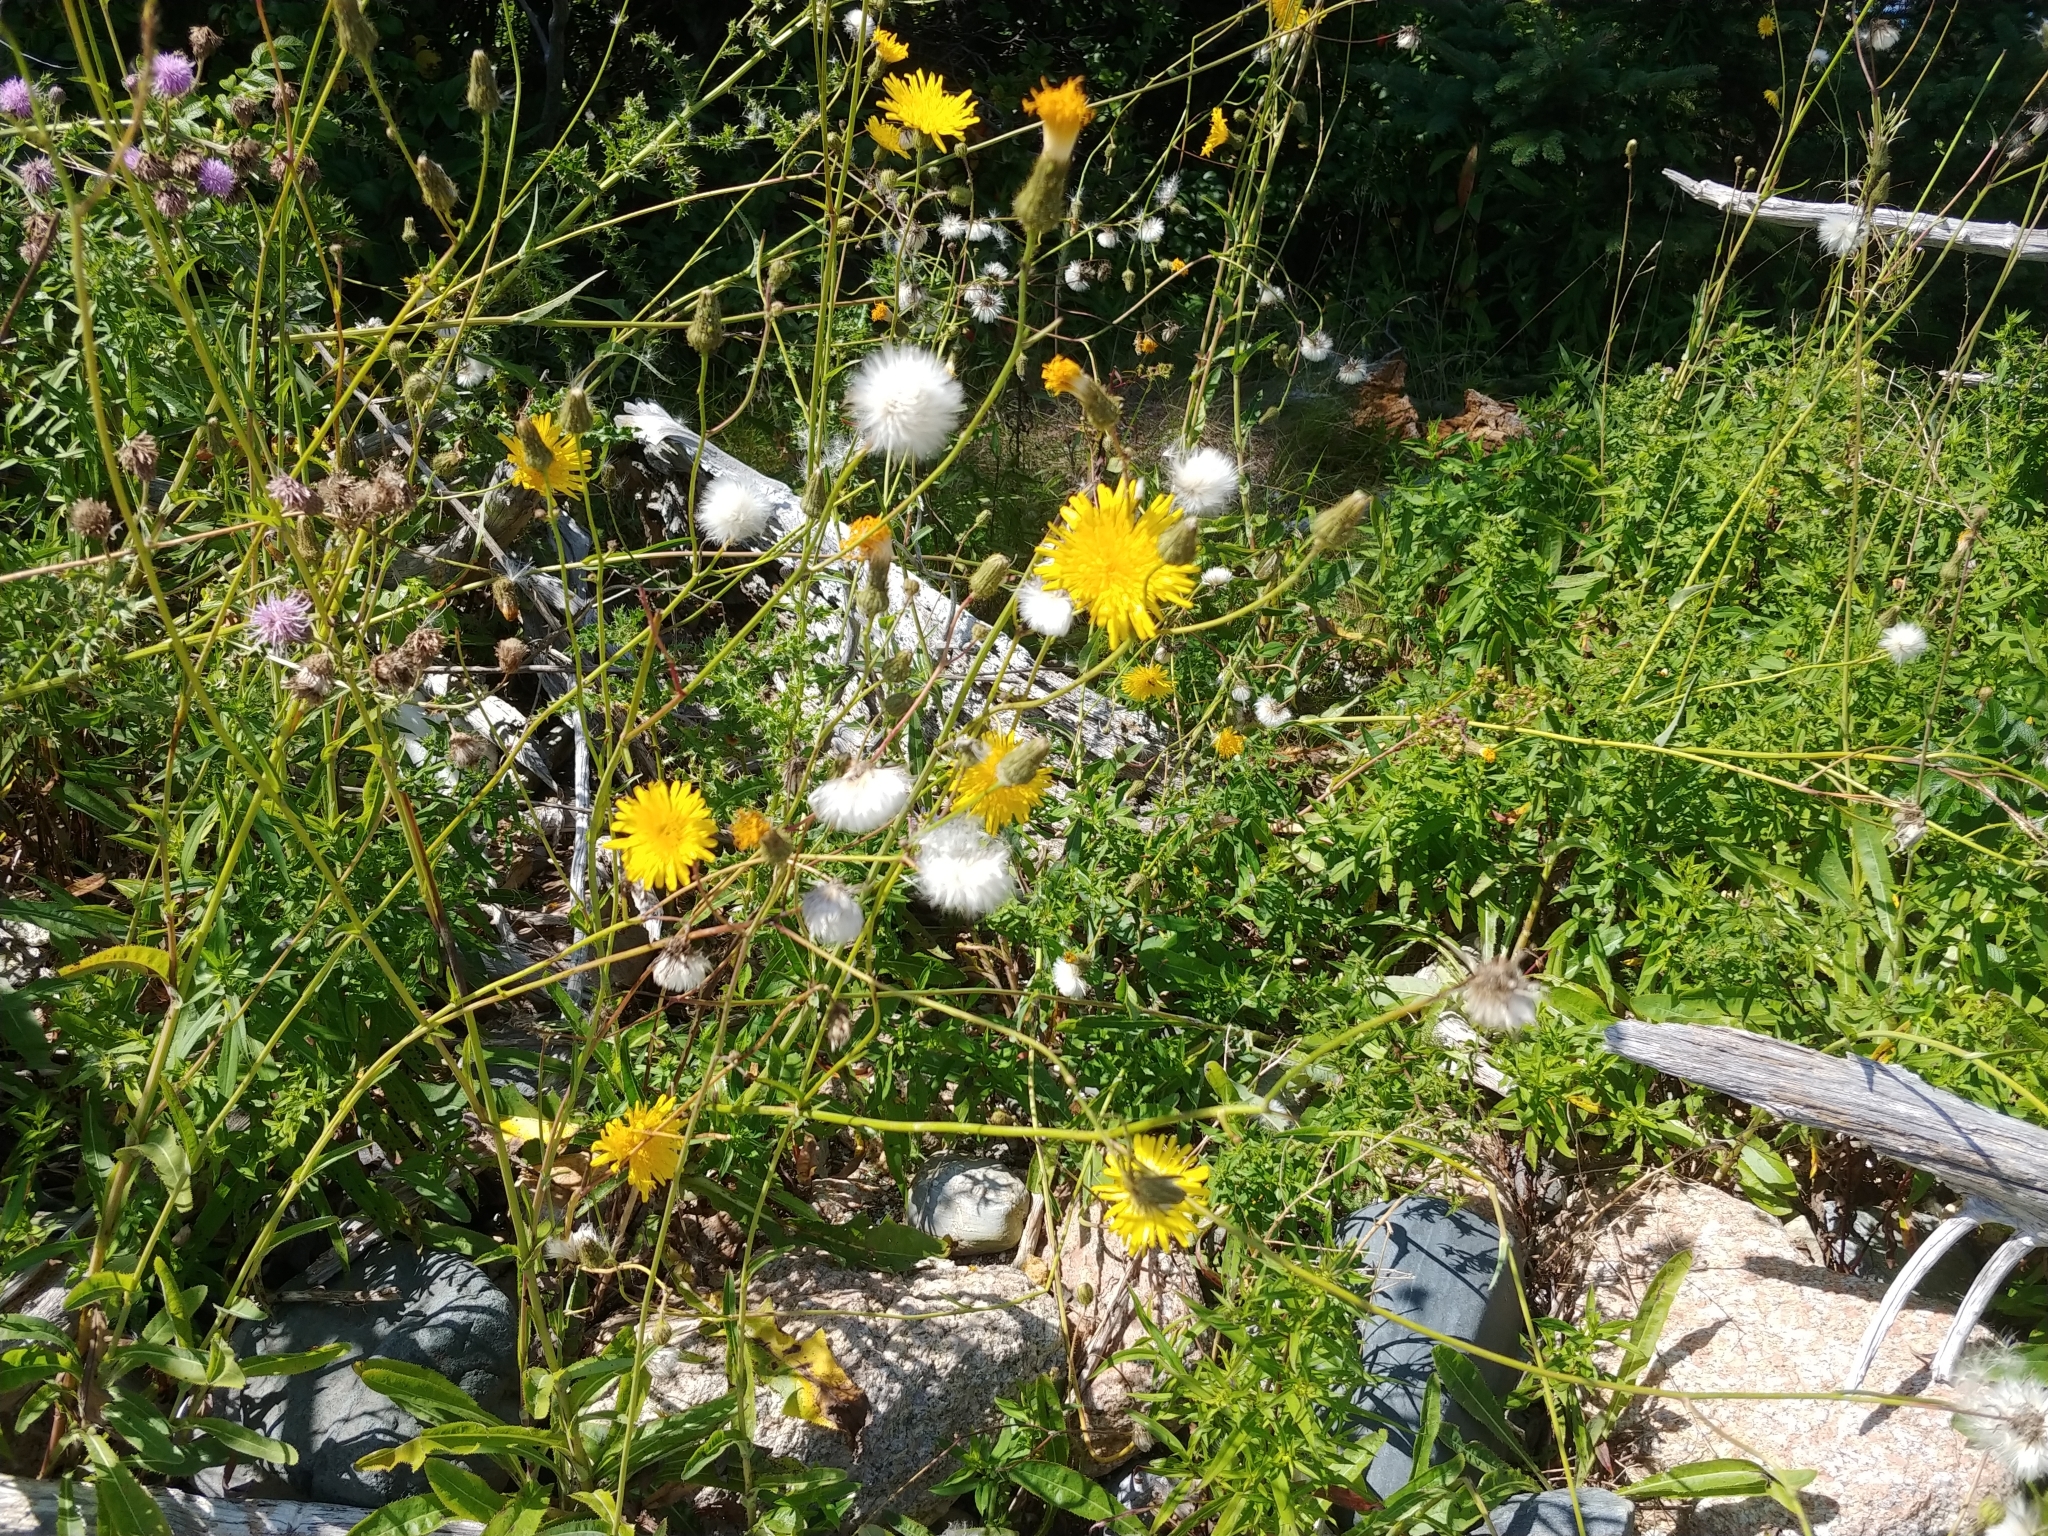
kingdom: Plantae
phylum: Tracheophyta
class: Magnoliopsida
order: Asterales
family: Asteraceae
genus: Sonchus
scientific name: Sonchus arvensis
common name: Perennial sow-thistle
